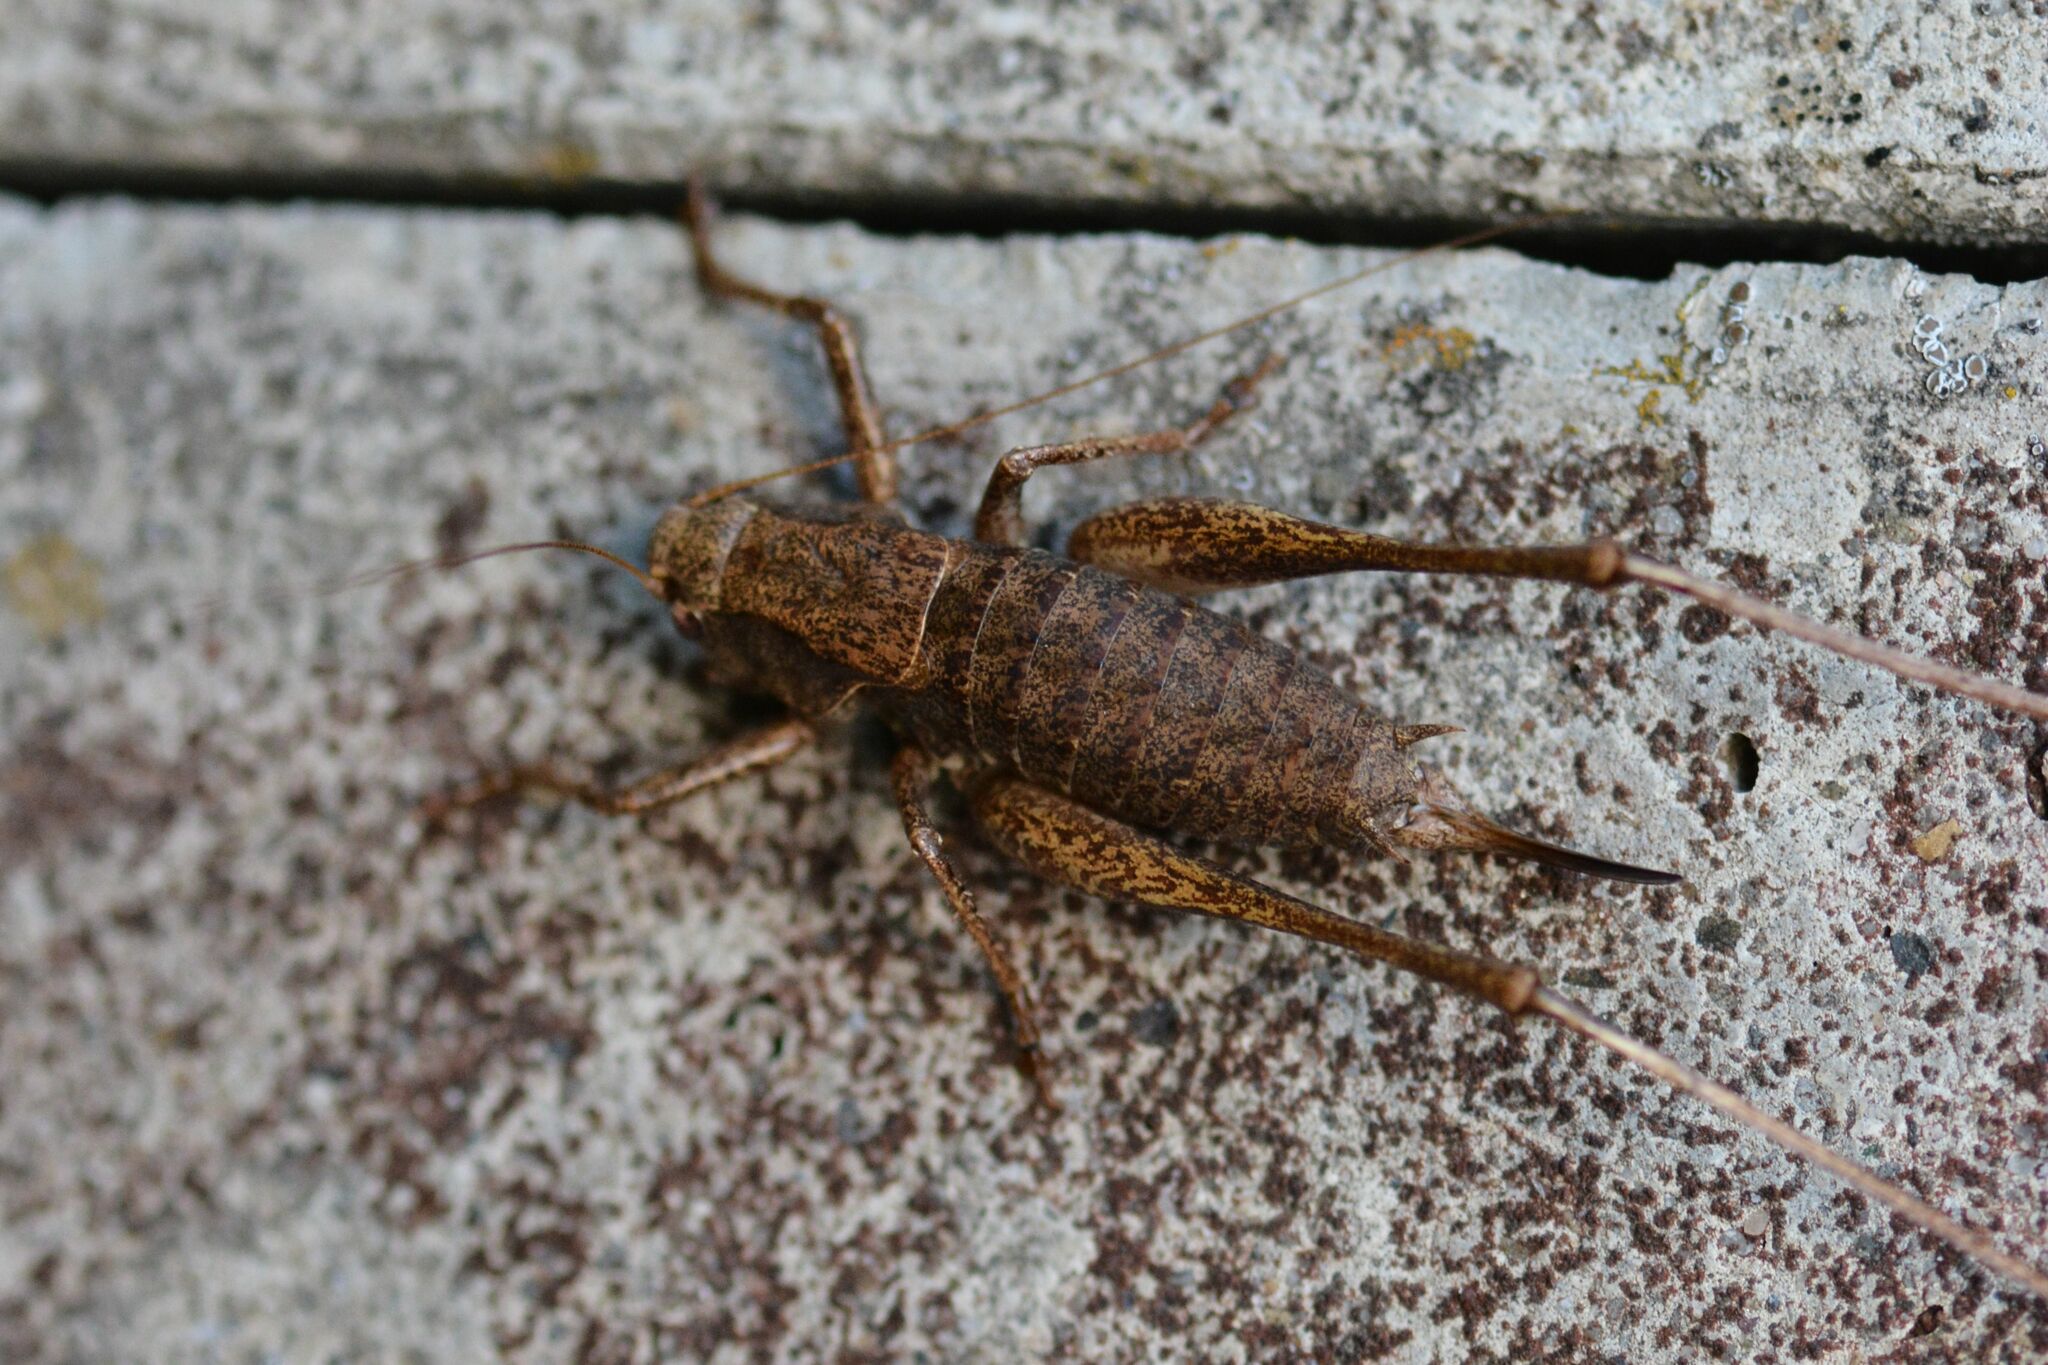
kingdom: Animalia
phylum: Arthropoda
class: Insecta
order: Orthoptera
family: Tettigoniidae
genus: Pholidoptera
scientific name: Pholidoptera griseoaptera
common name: Dark bush-cricket
